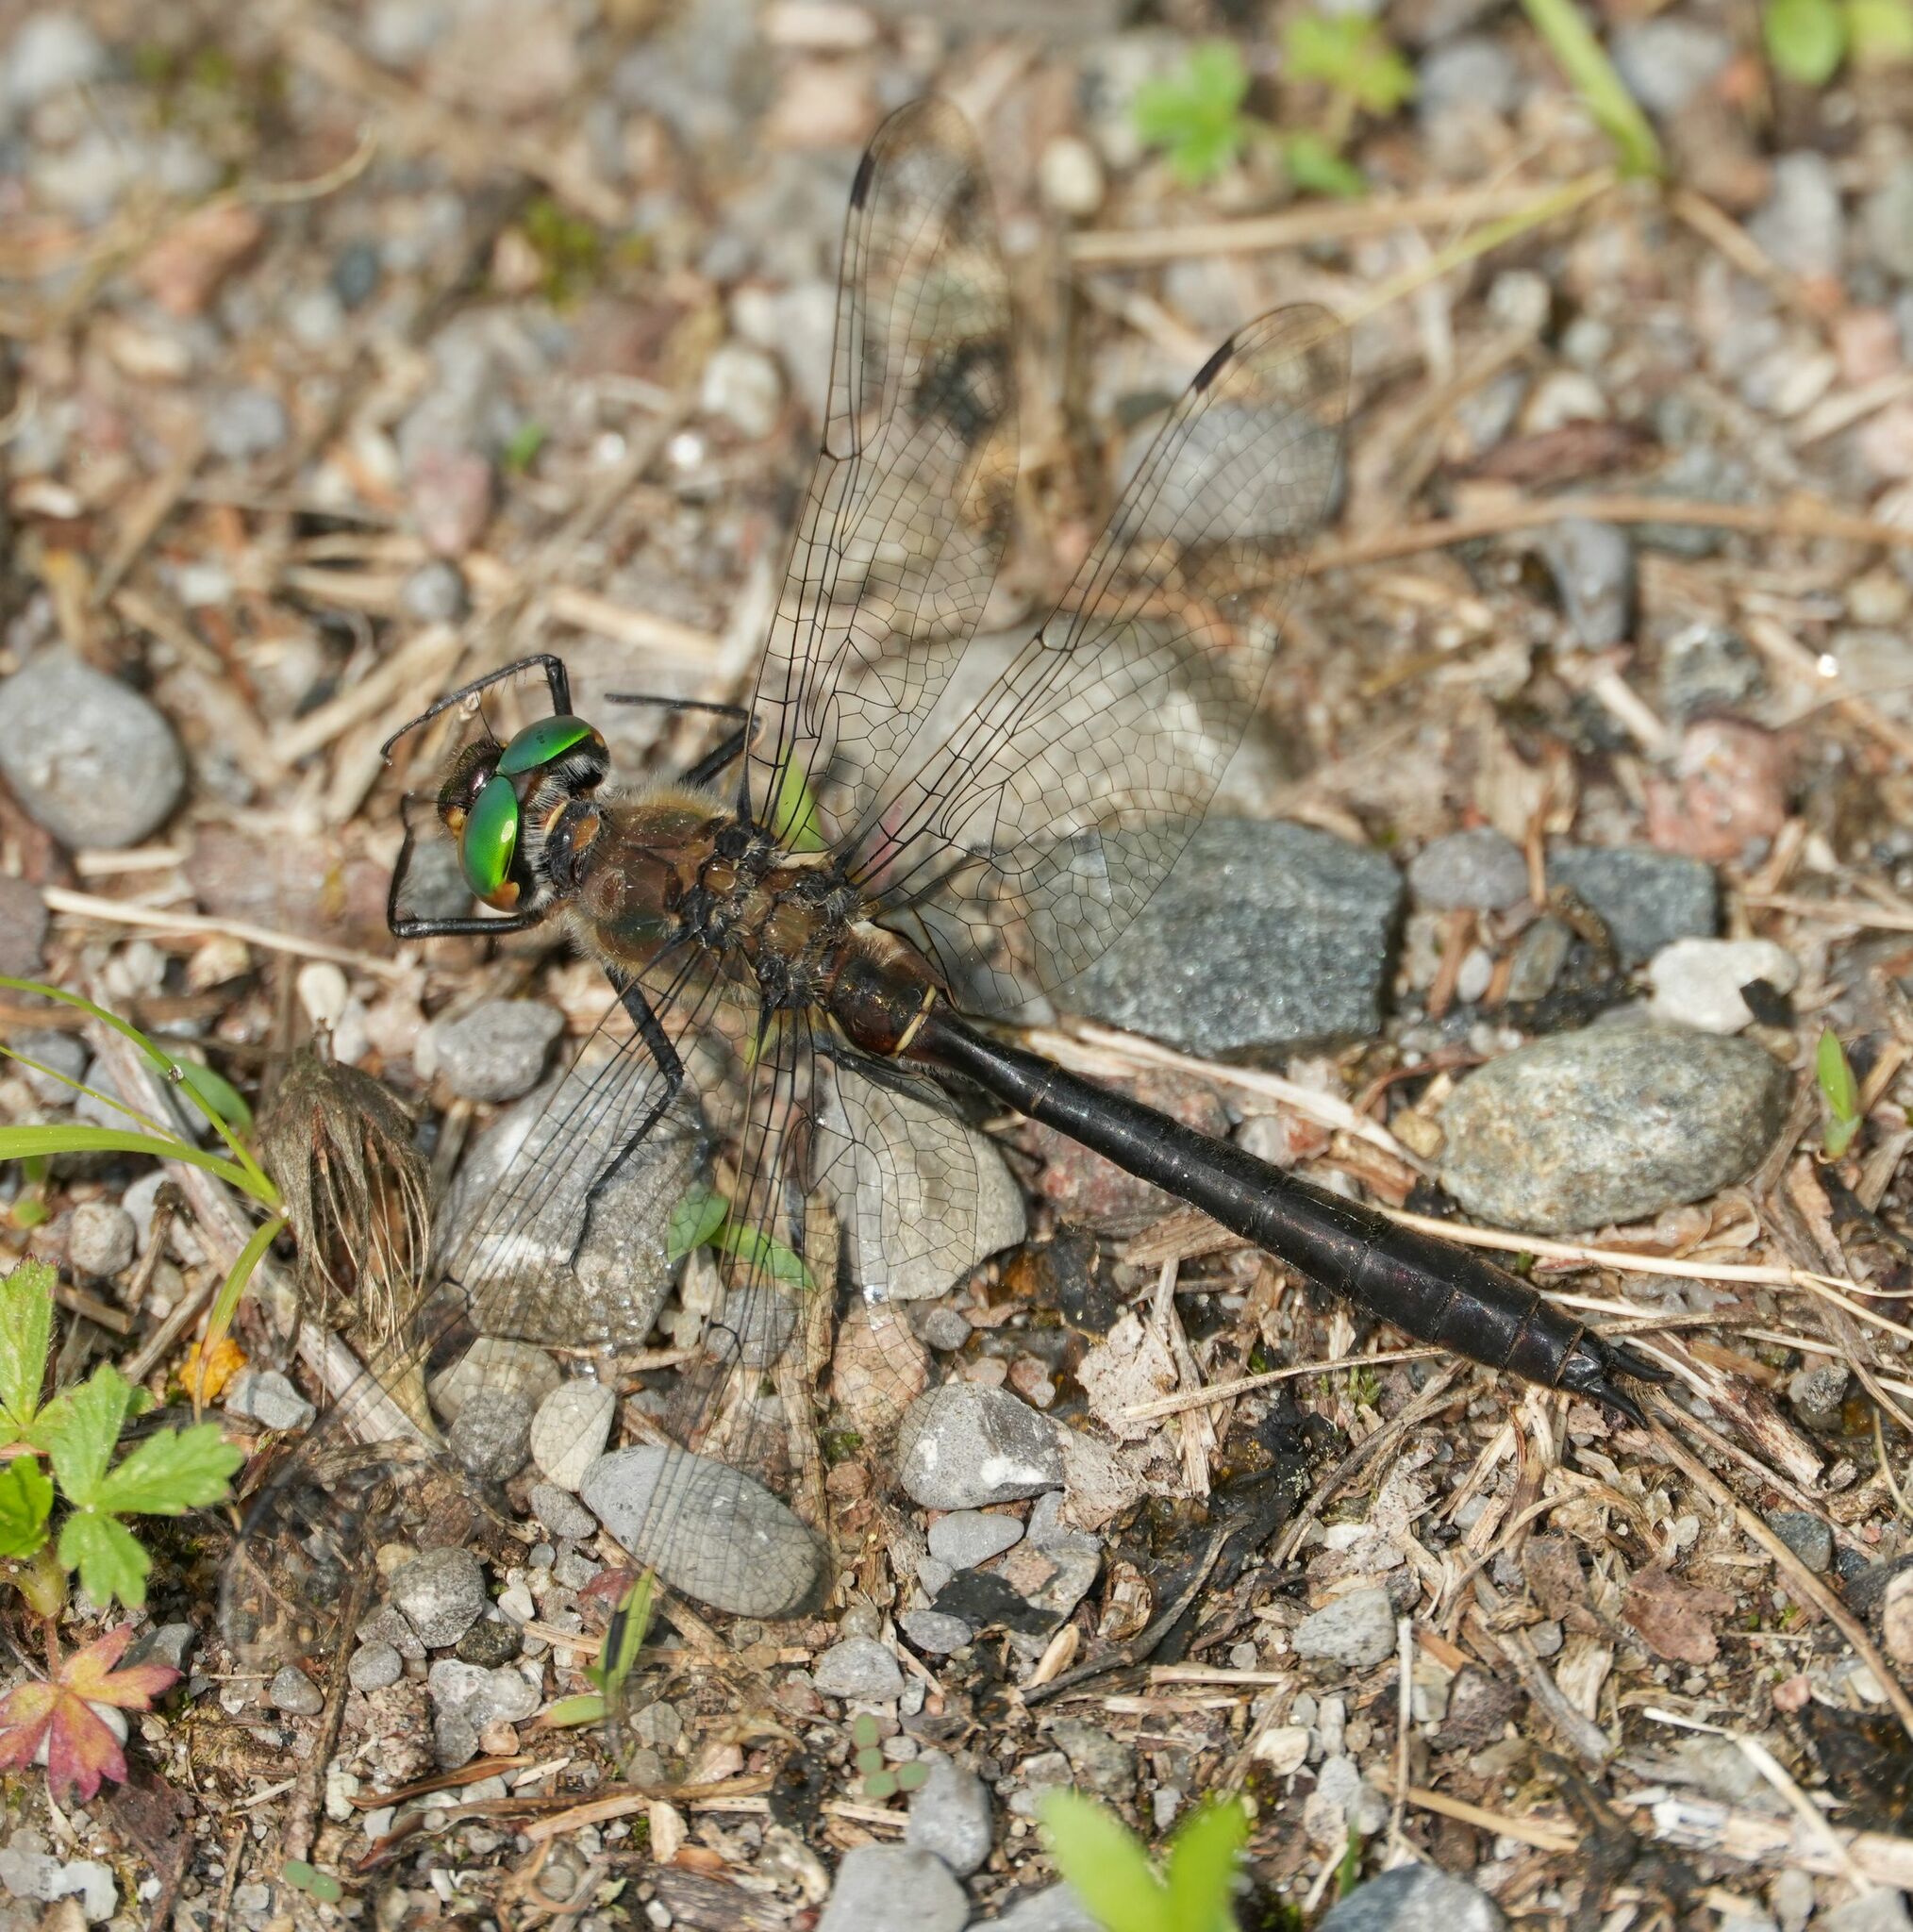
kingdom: Animalia
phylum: Arthropoda
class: Insecta
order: Odonata
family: Corduliidae
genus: Cordulia
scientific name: Cordulia shurtleffii
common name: American emerald
